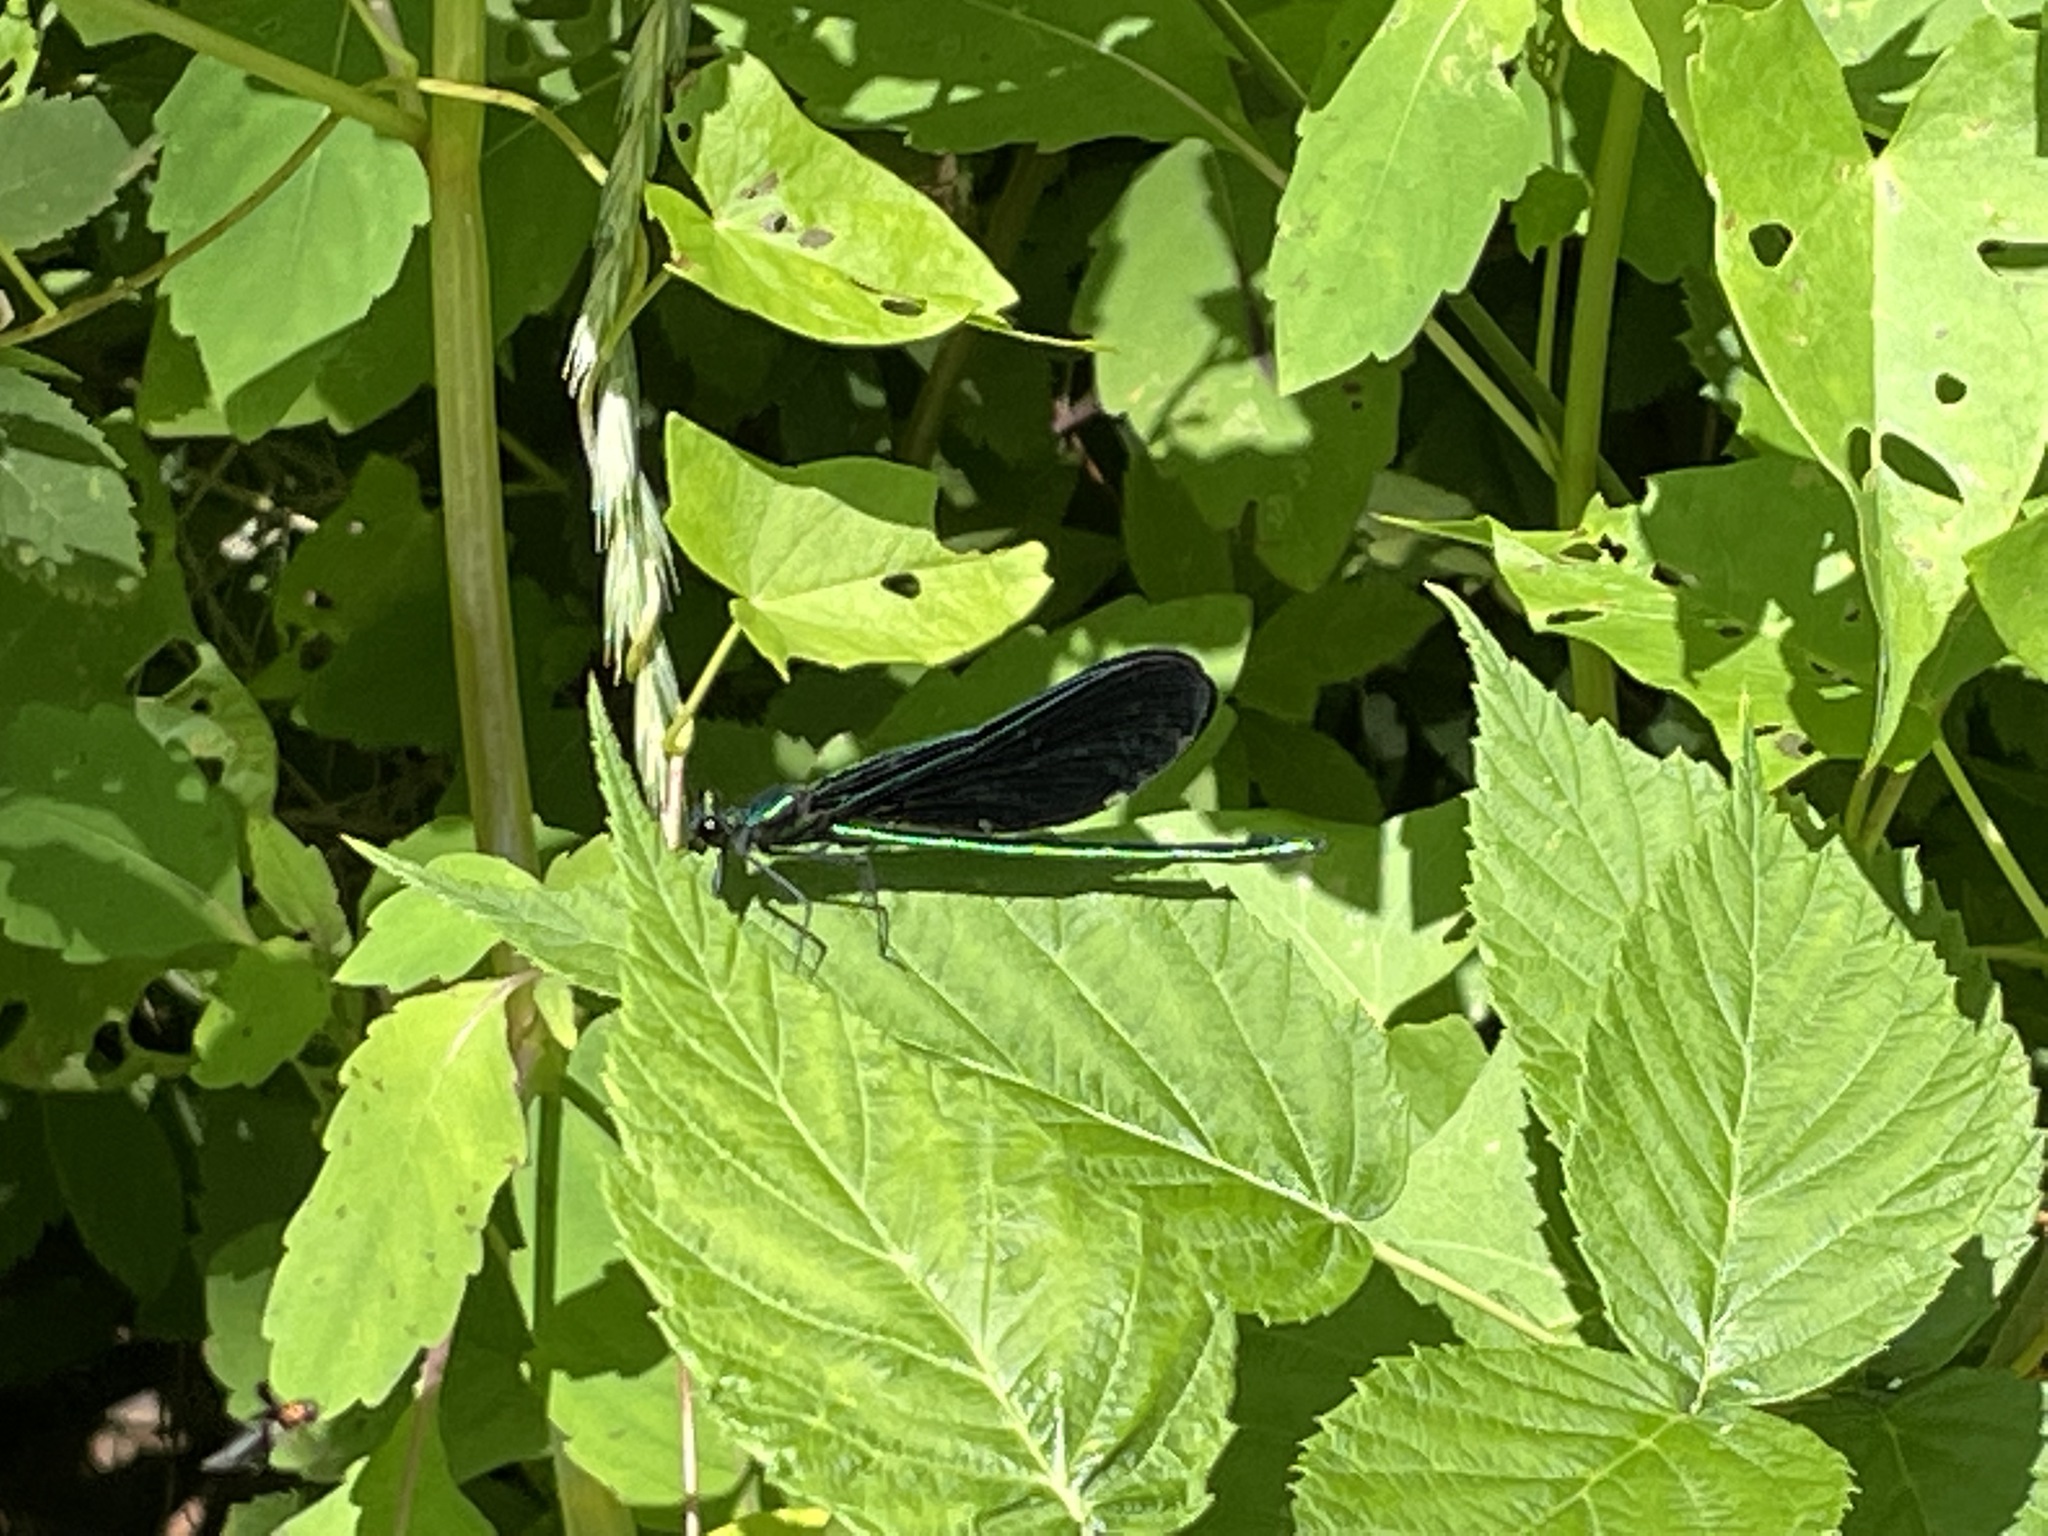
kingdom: Animalia
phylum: Arthropoda
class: Insecta
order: Odonata
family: Calopterygidae
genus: Calopteryx
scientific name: Calopteryx maculata
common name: Ebony jewelwing
